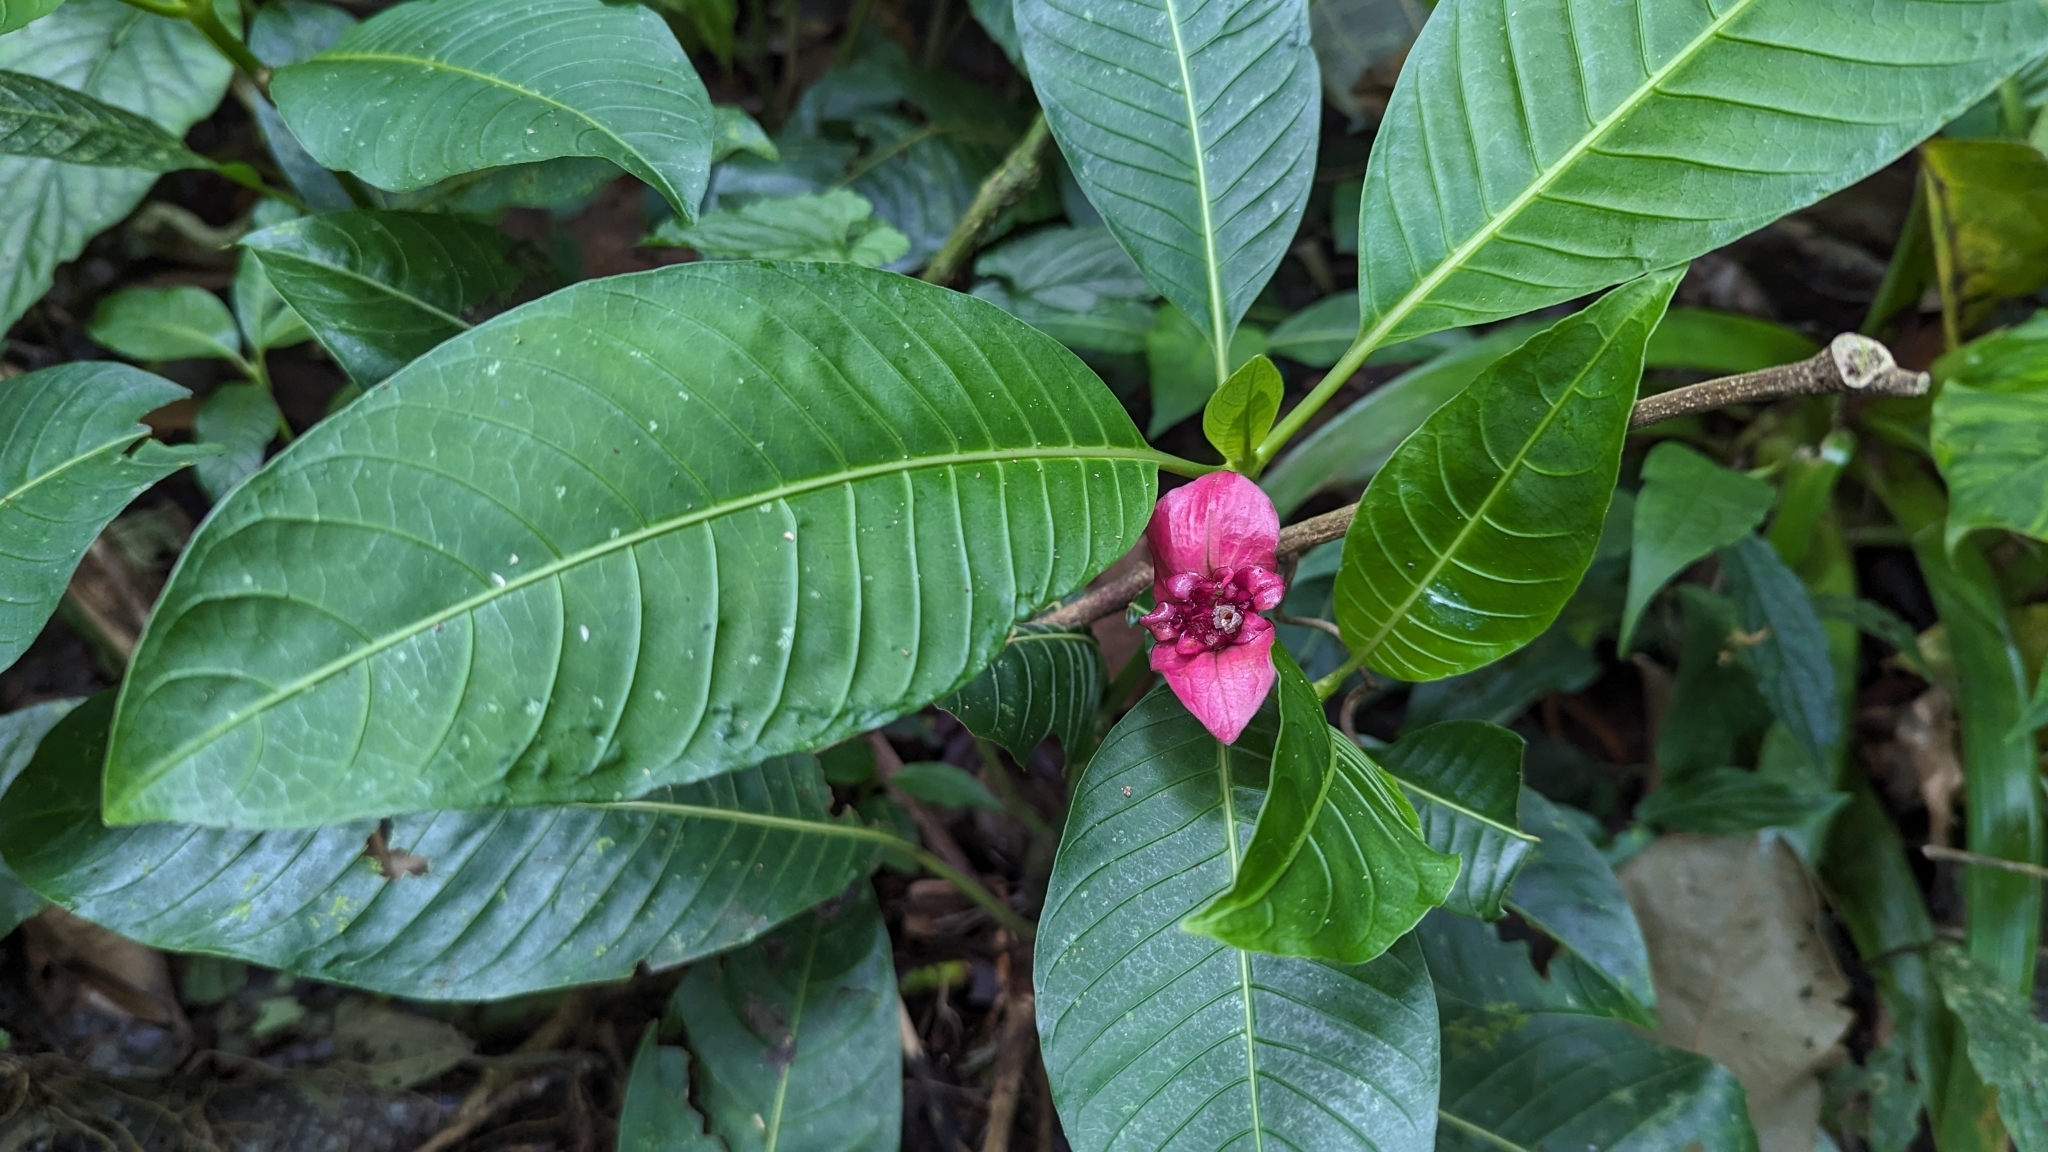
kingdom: Plantae
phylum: Tracheophyta
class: Magnoliopsida
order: Gentianales
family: Rubiaceae
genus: Palicourea
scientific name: Palicourea elata
